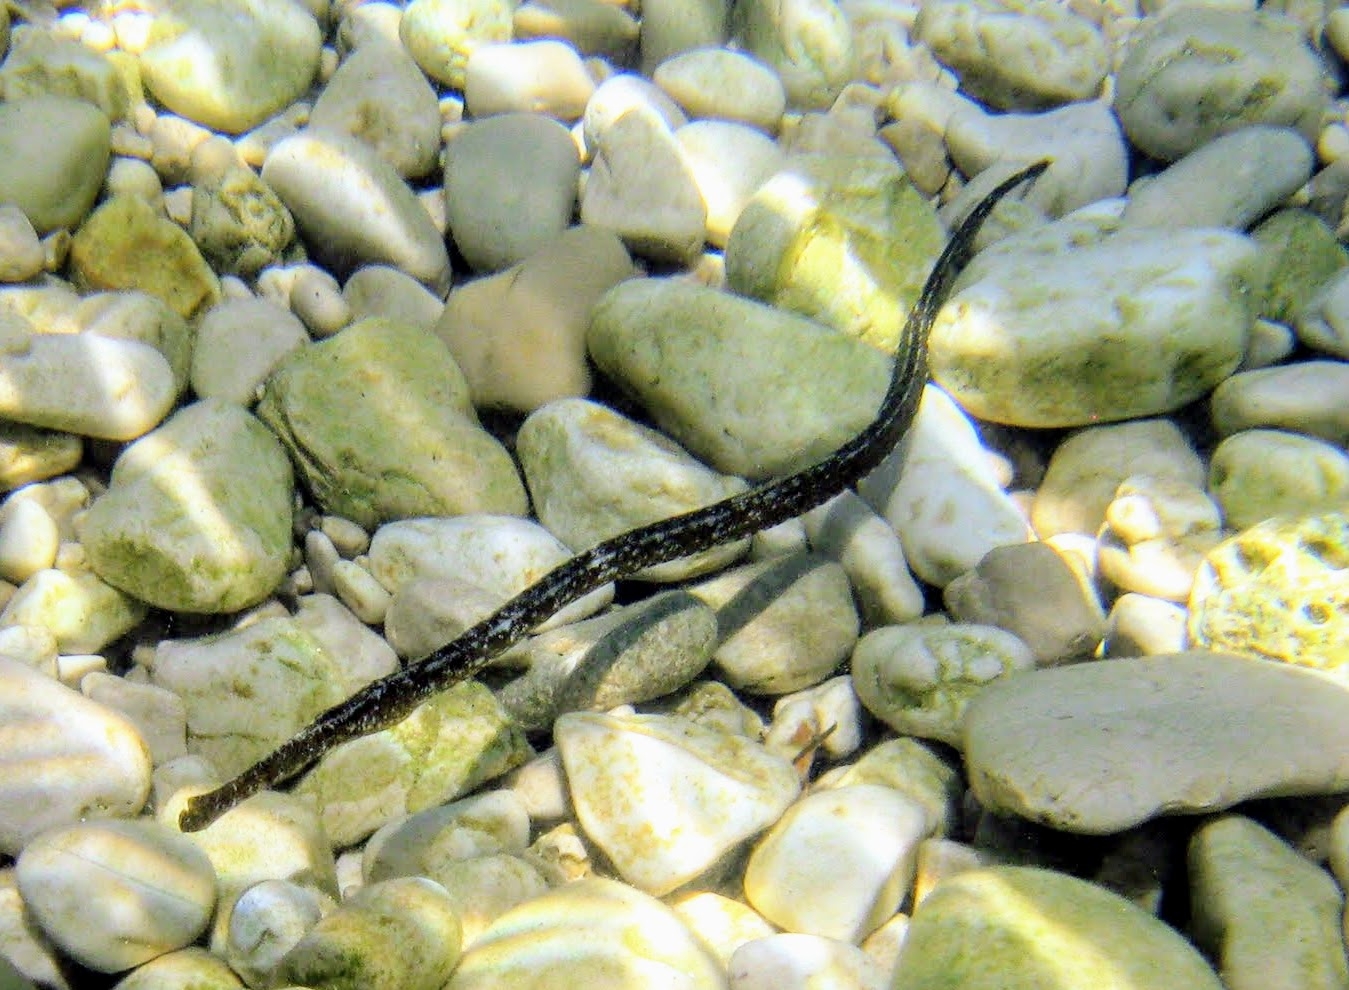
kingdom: Animalia
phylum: Chordata
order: Syngnathiformes
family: Syngnathidae
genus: Syngnathus
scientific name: Syngnathus typhle
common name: Deep-snouted pipefish
